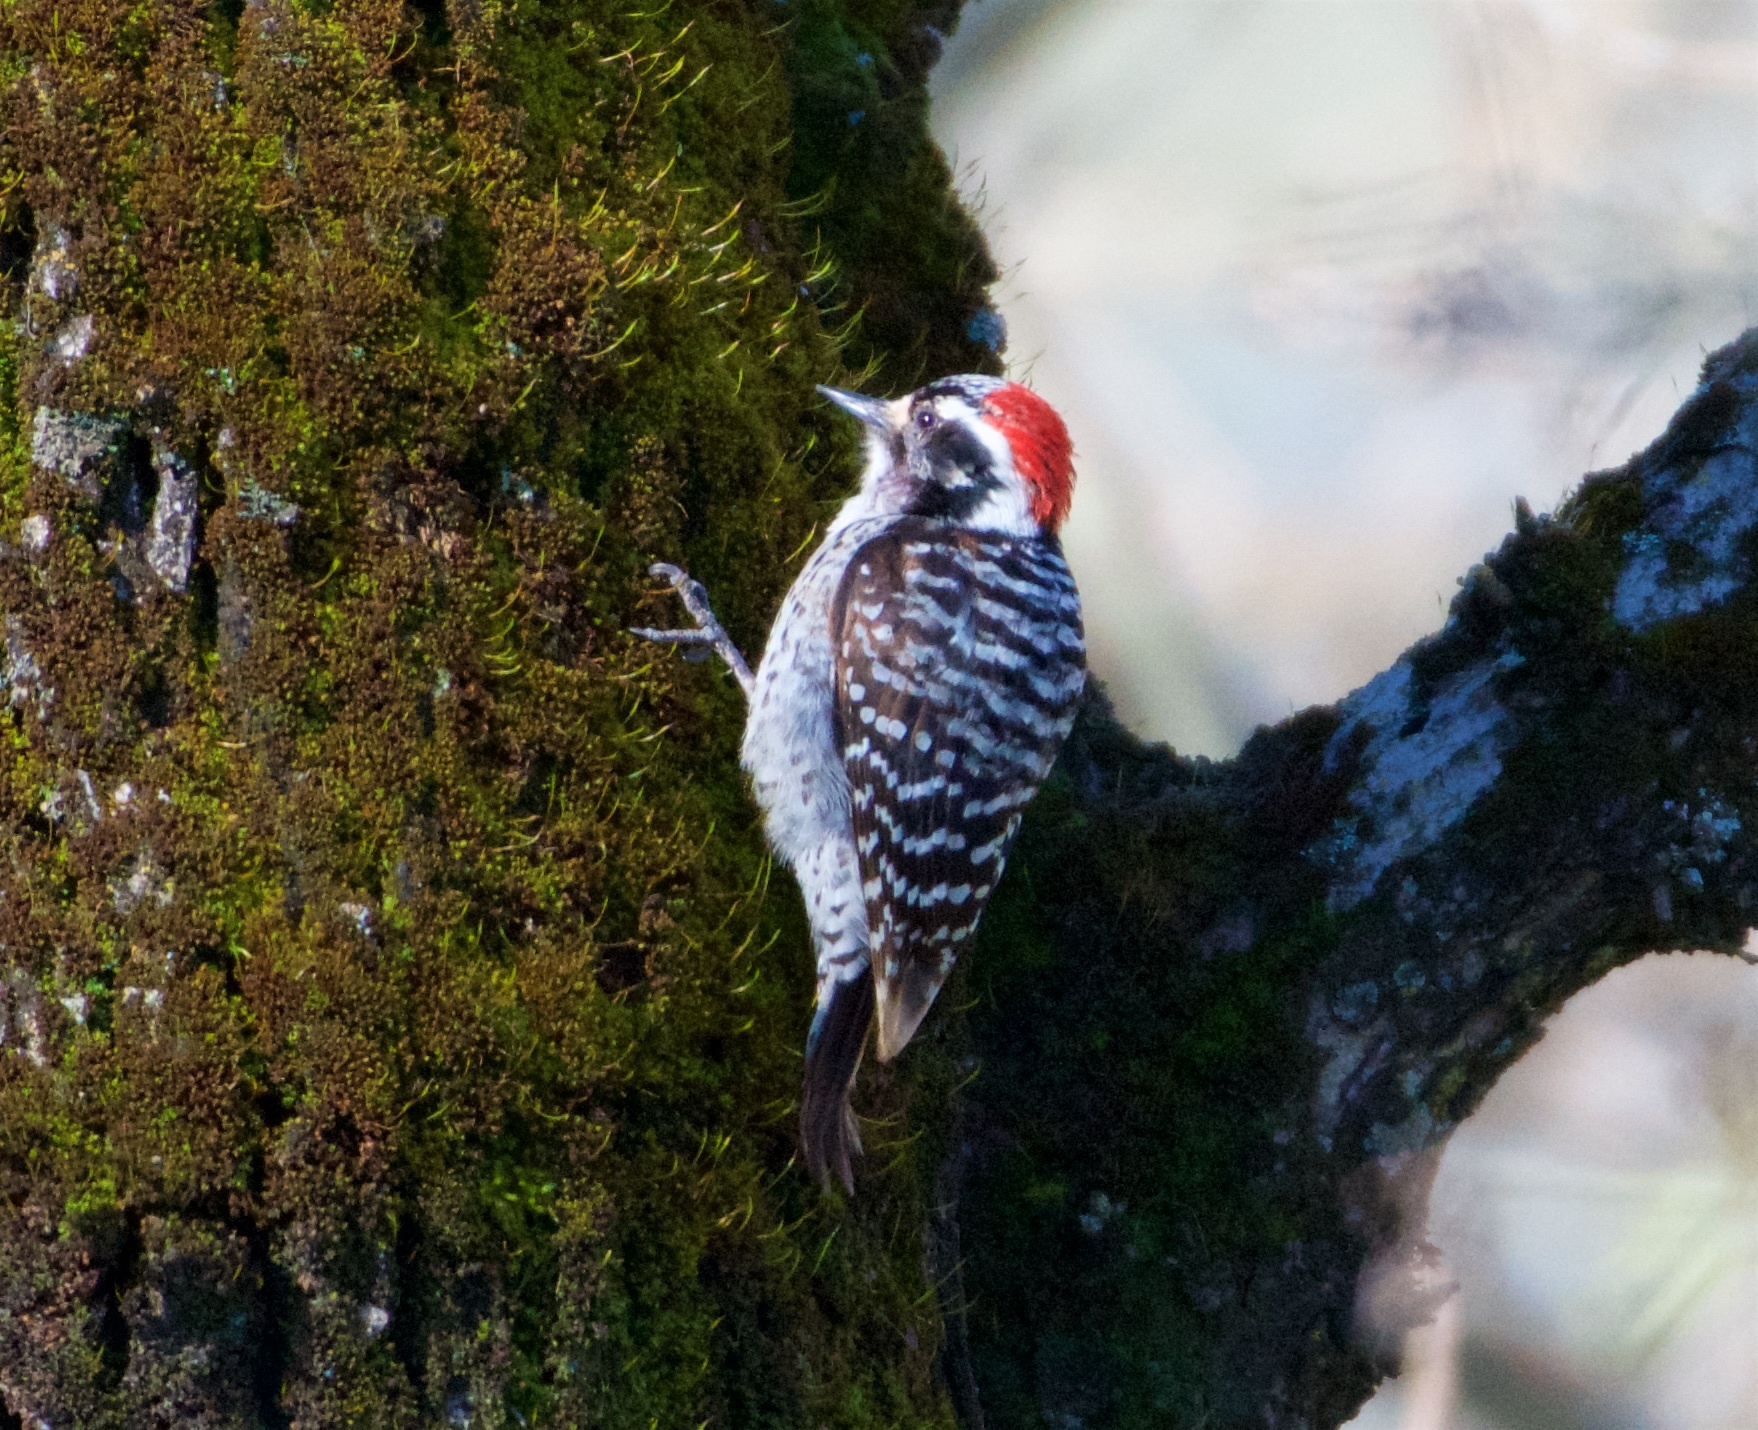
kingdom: Animalia
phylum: Chordata
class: Aves
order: Piciformes
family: Picidae
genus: Dryobates
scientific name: Dryobates nuttallii
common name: Nuttall's woodpecker
